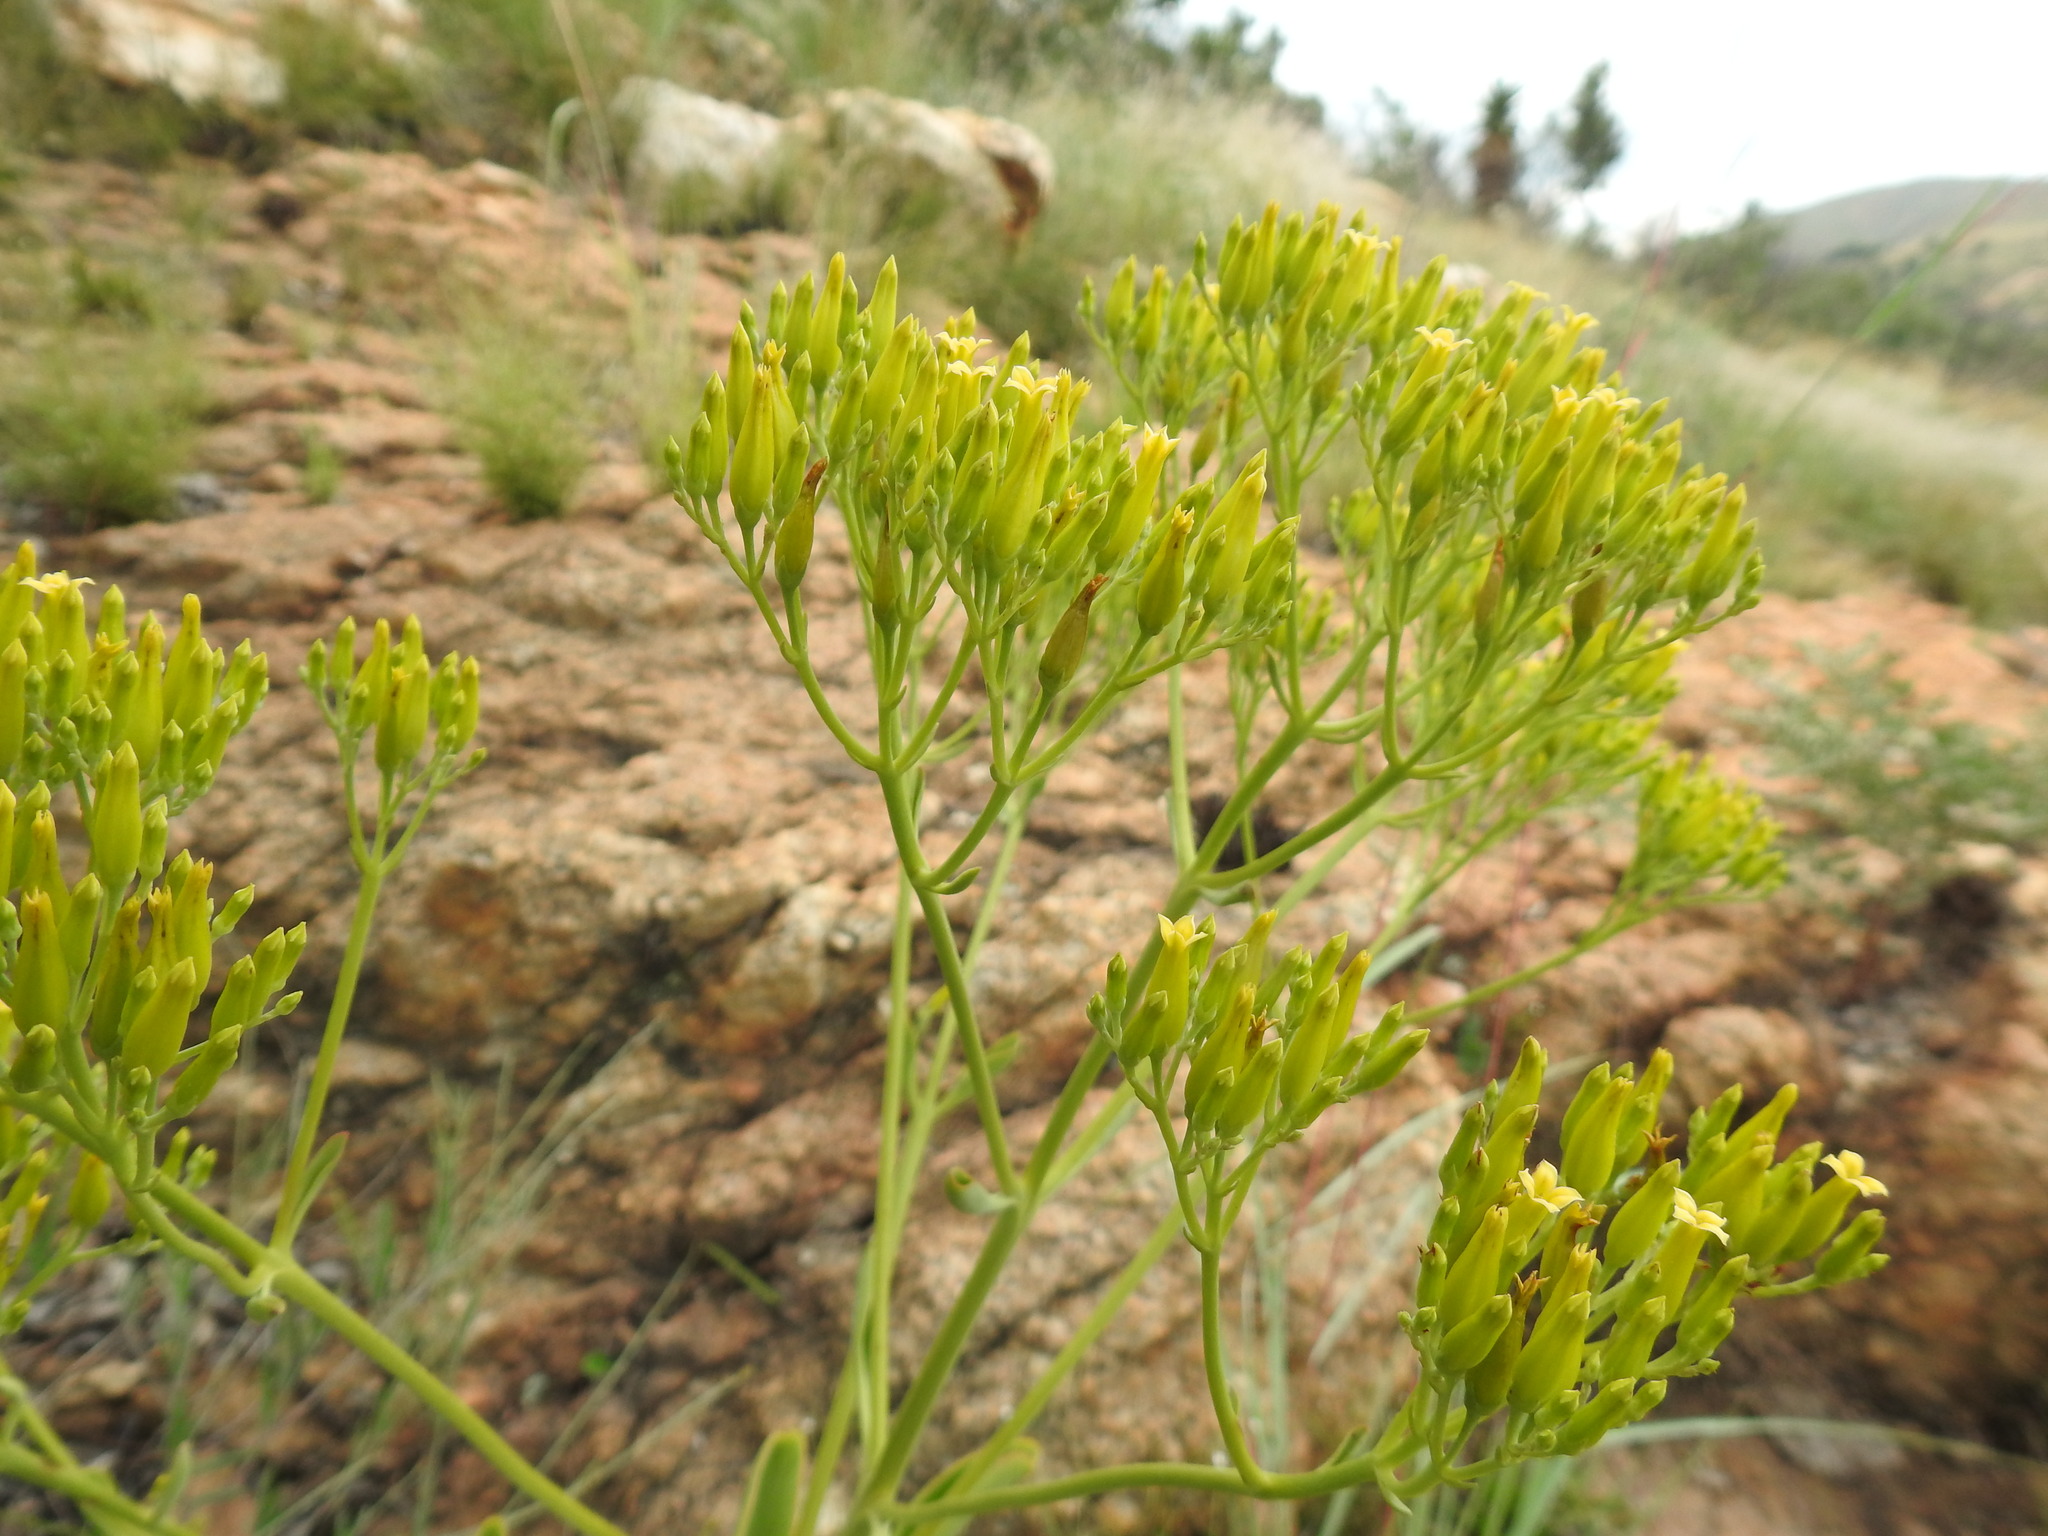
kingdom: Plantae
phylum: Tracheophyta
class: Magnoliopsida
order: Saxifragales
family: Crassulaceae
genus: Kalanchoe
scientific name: Kalanchoe paniculata
